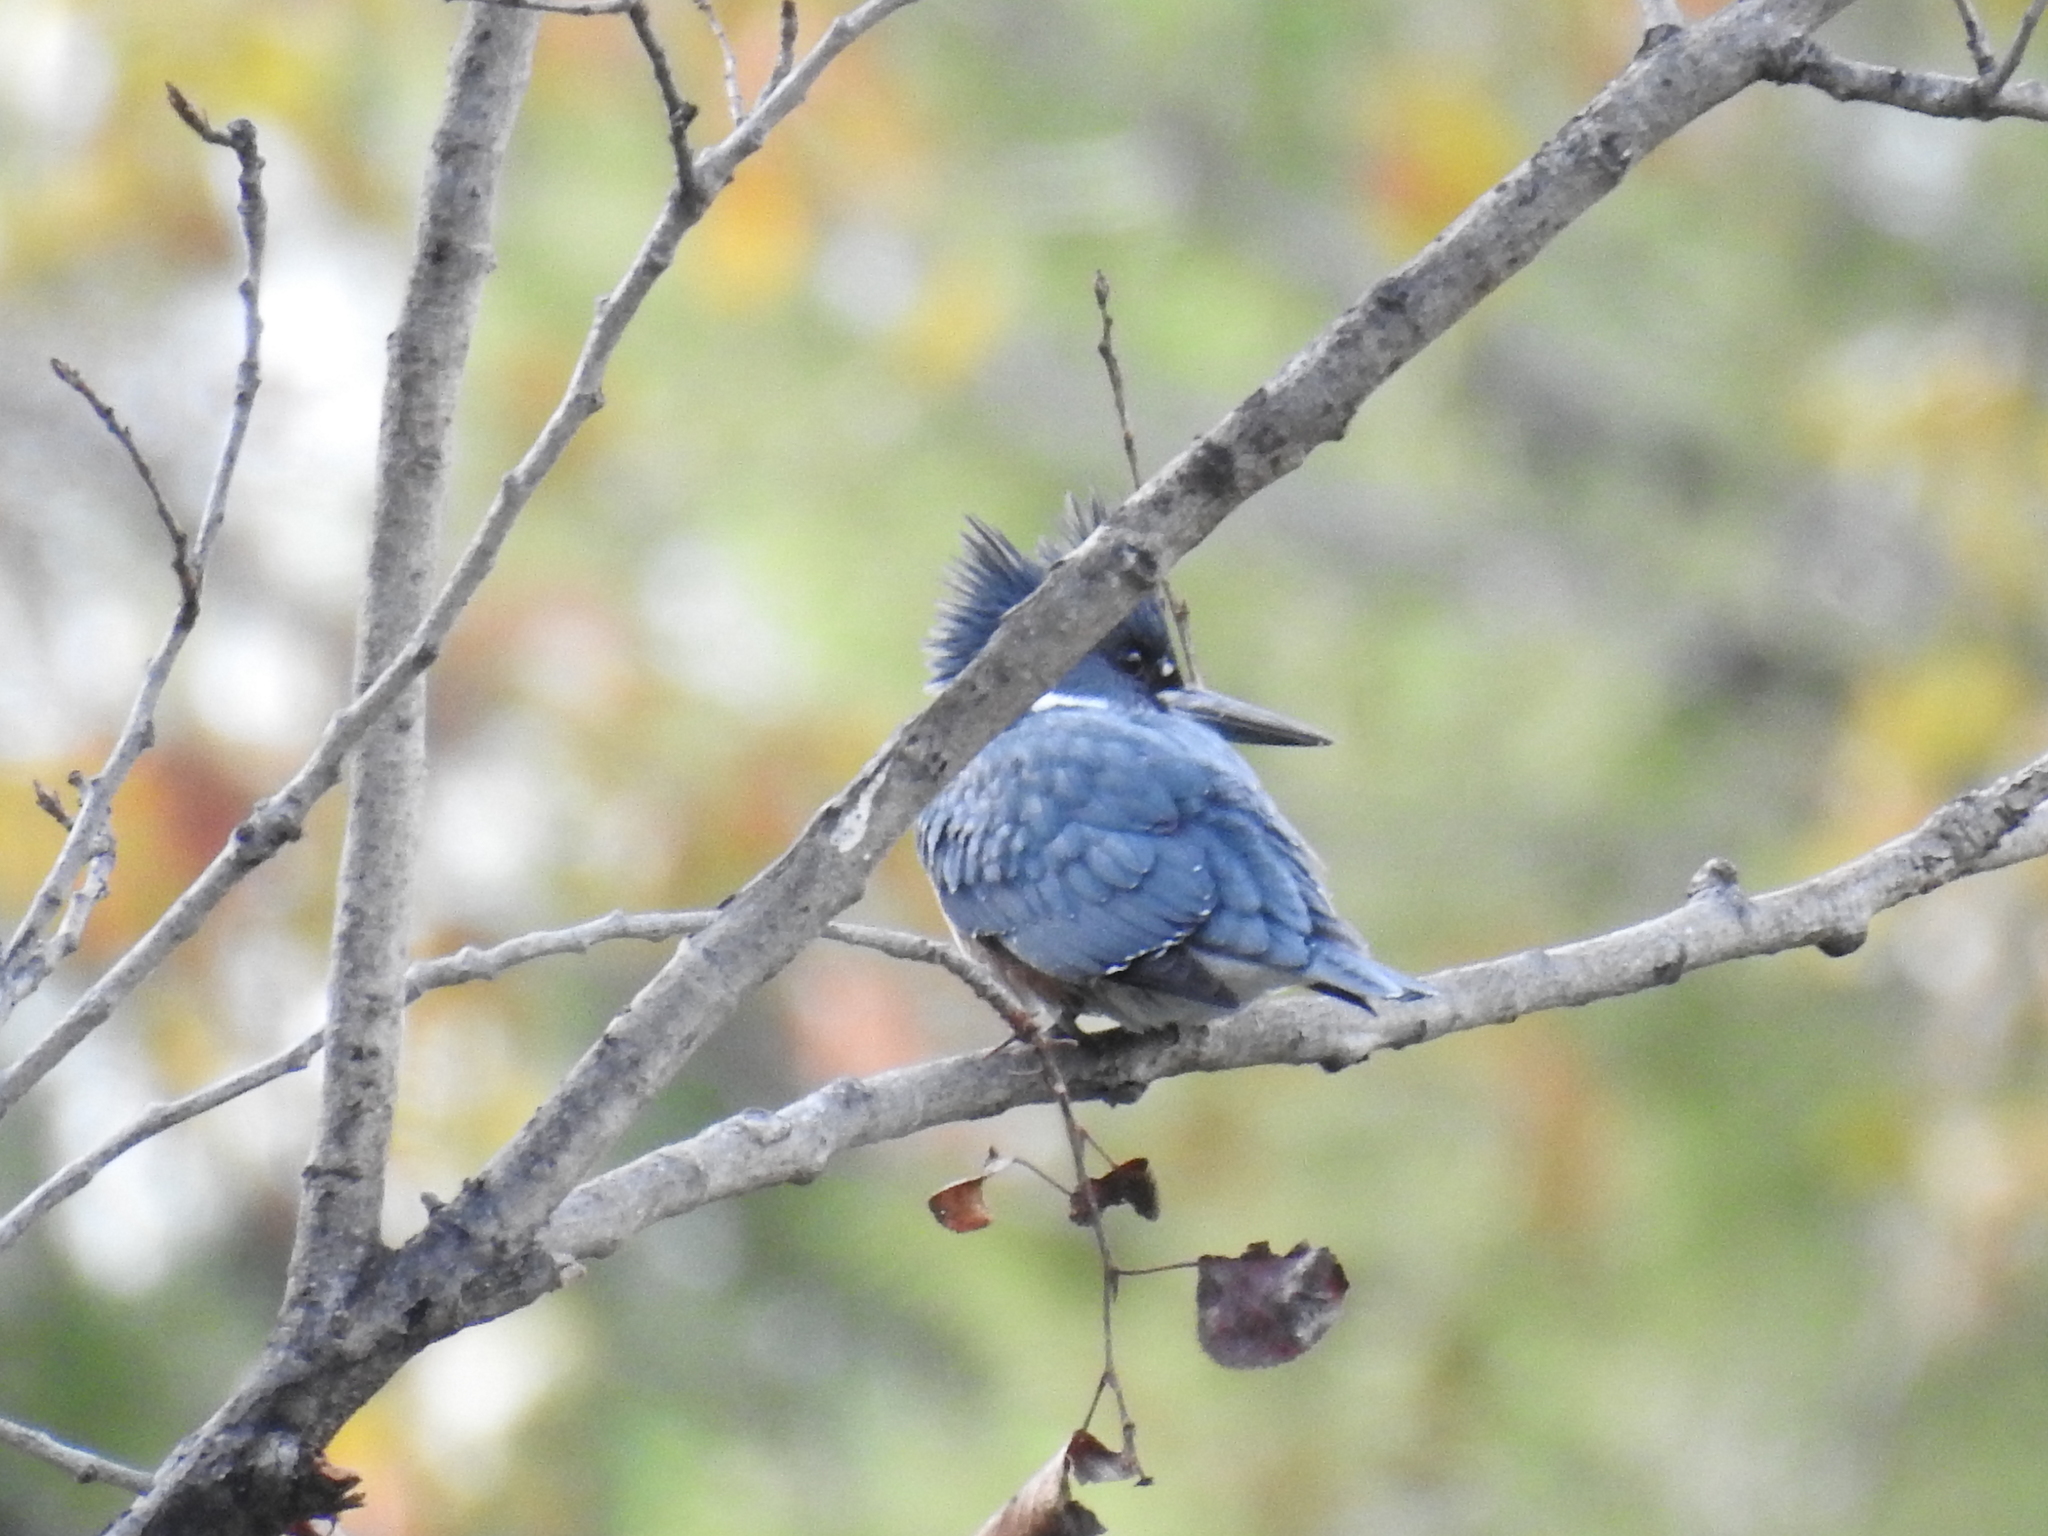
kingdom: Animalia
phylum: Chordata
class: Aves
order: Coraciiformes
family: Alcedinidae
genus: Megaceryle
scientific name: Megaceryle alcyon
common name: Belted kingfisher
